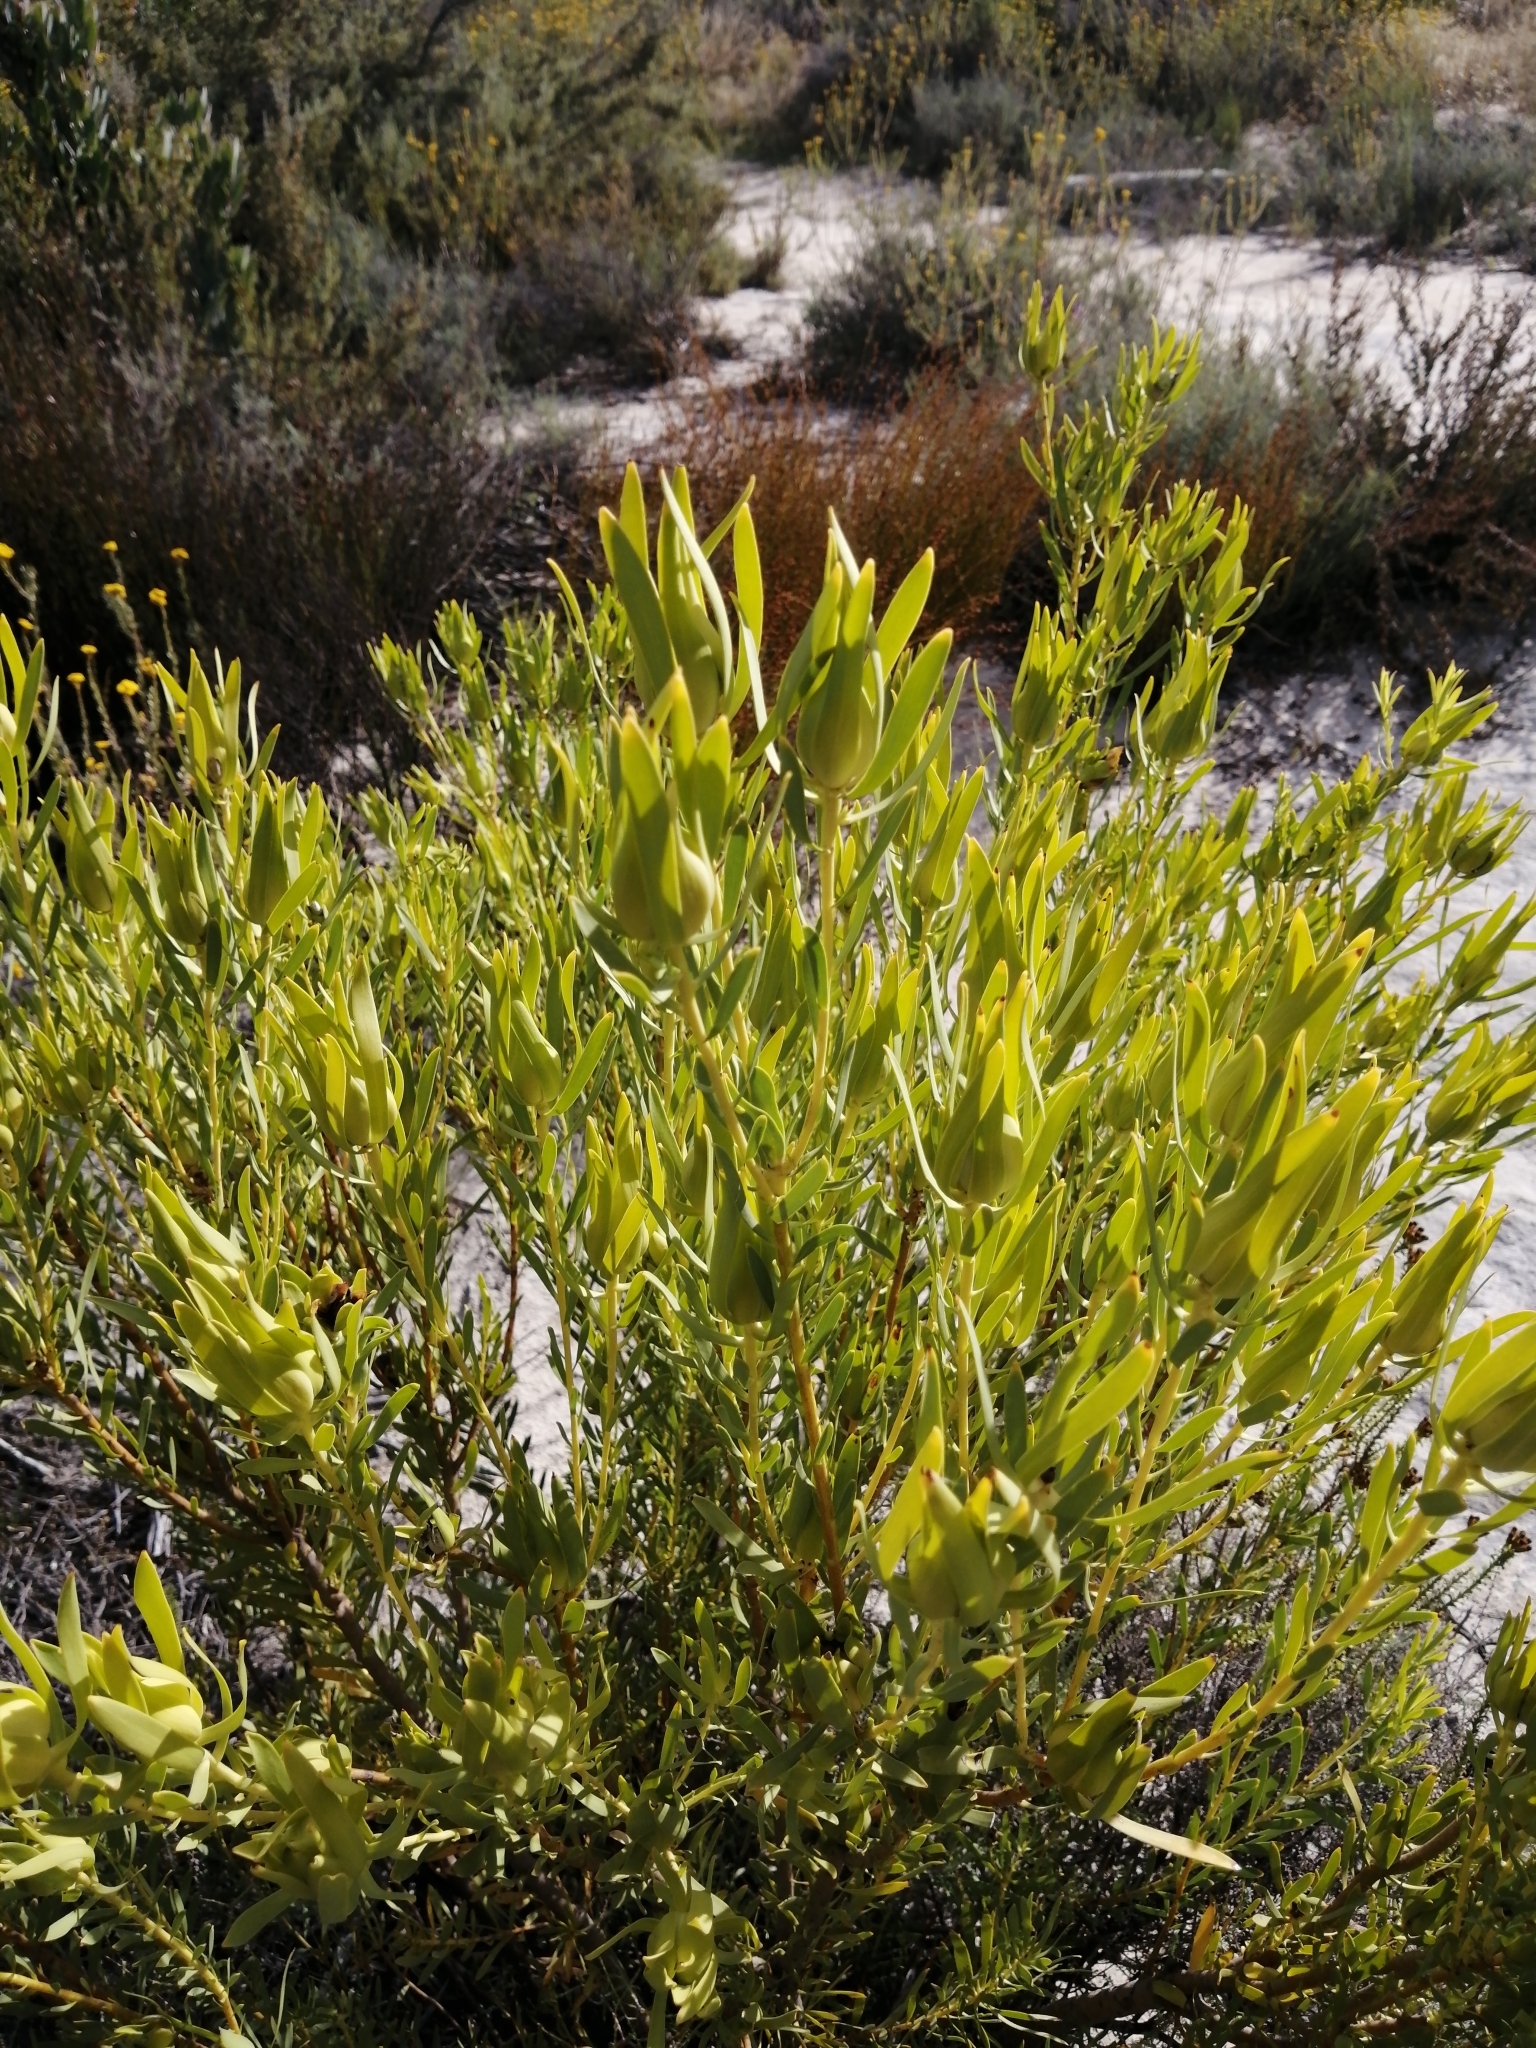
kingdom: Plantae
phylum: Tracheophyta
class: Magnoliopsida
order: Proteales
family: Proteaceae
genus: Leucadendron
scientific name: Leucadendron salignum
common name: Common sunshine conebush
